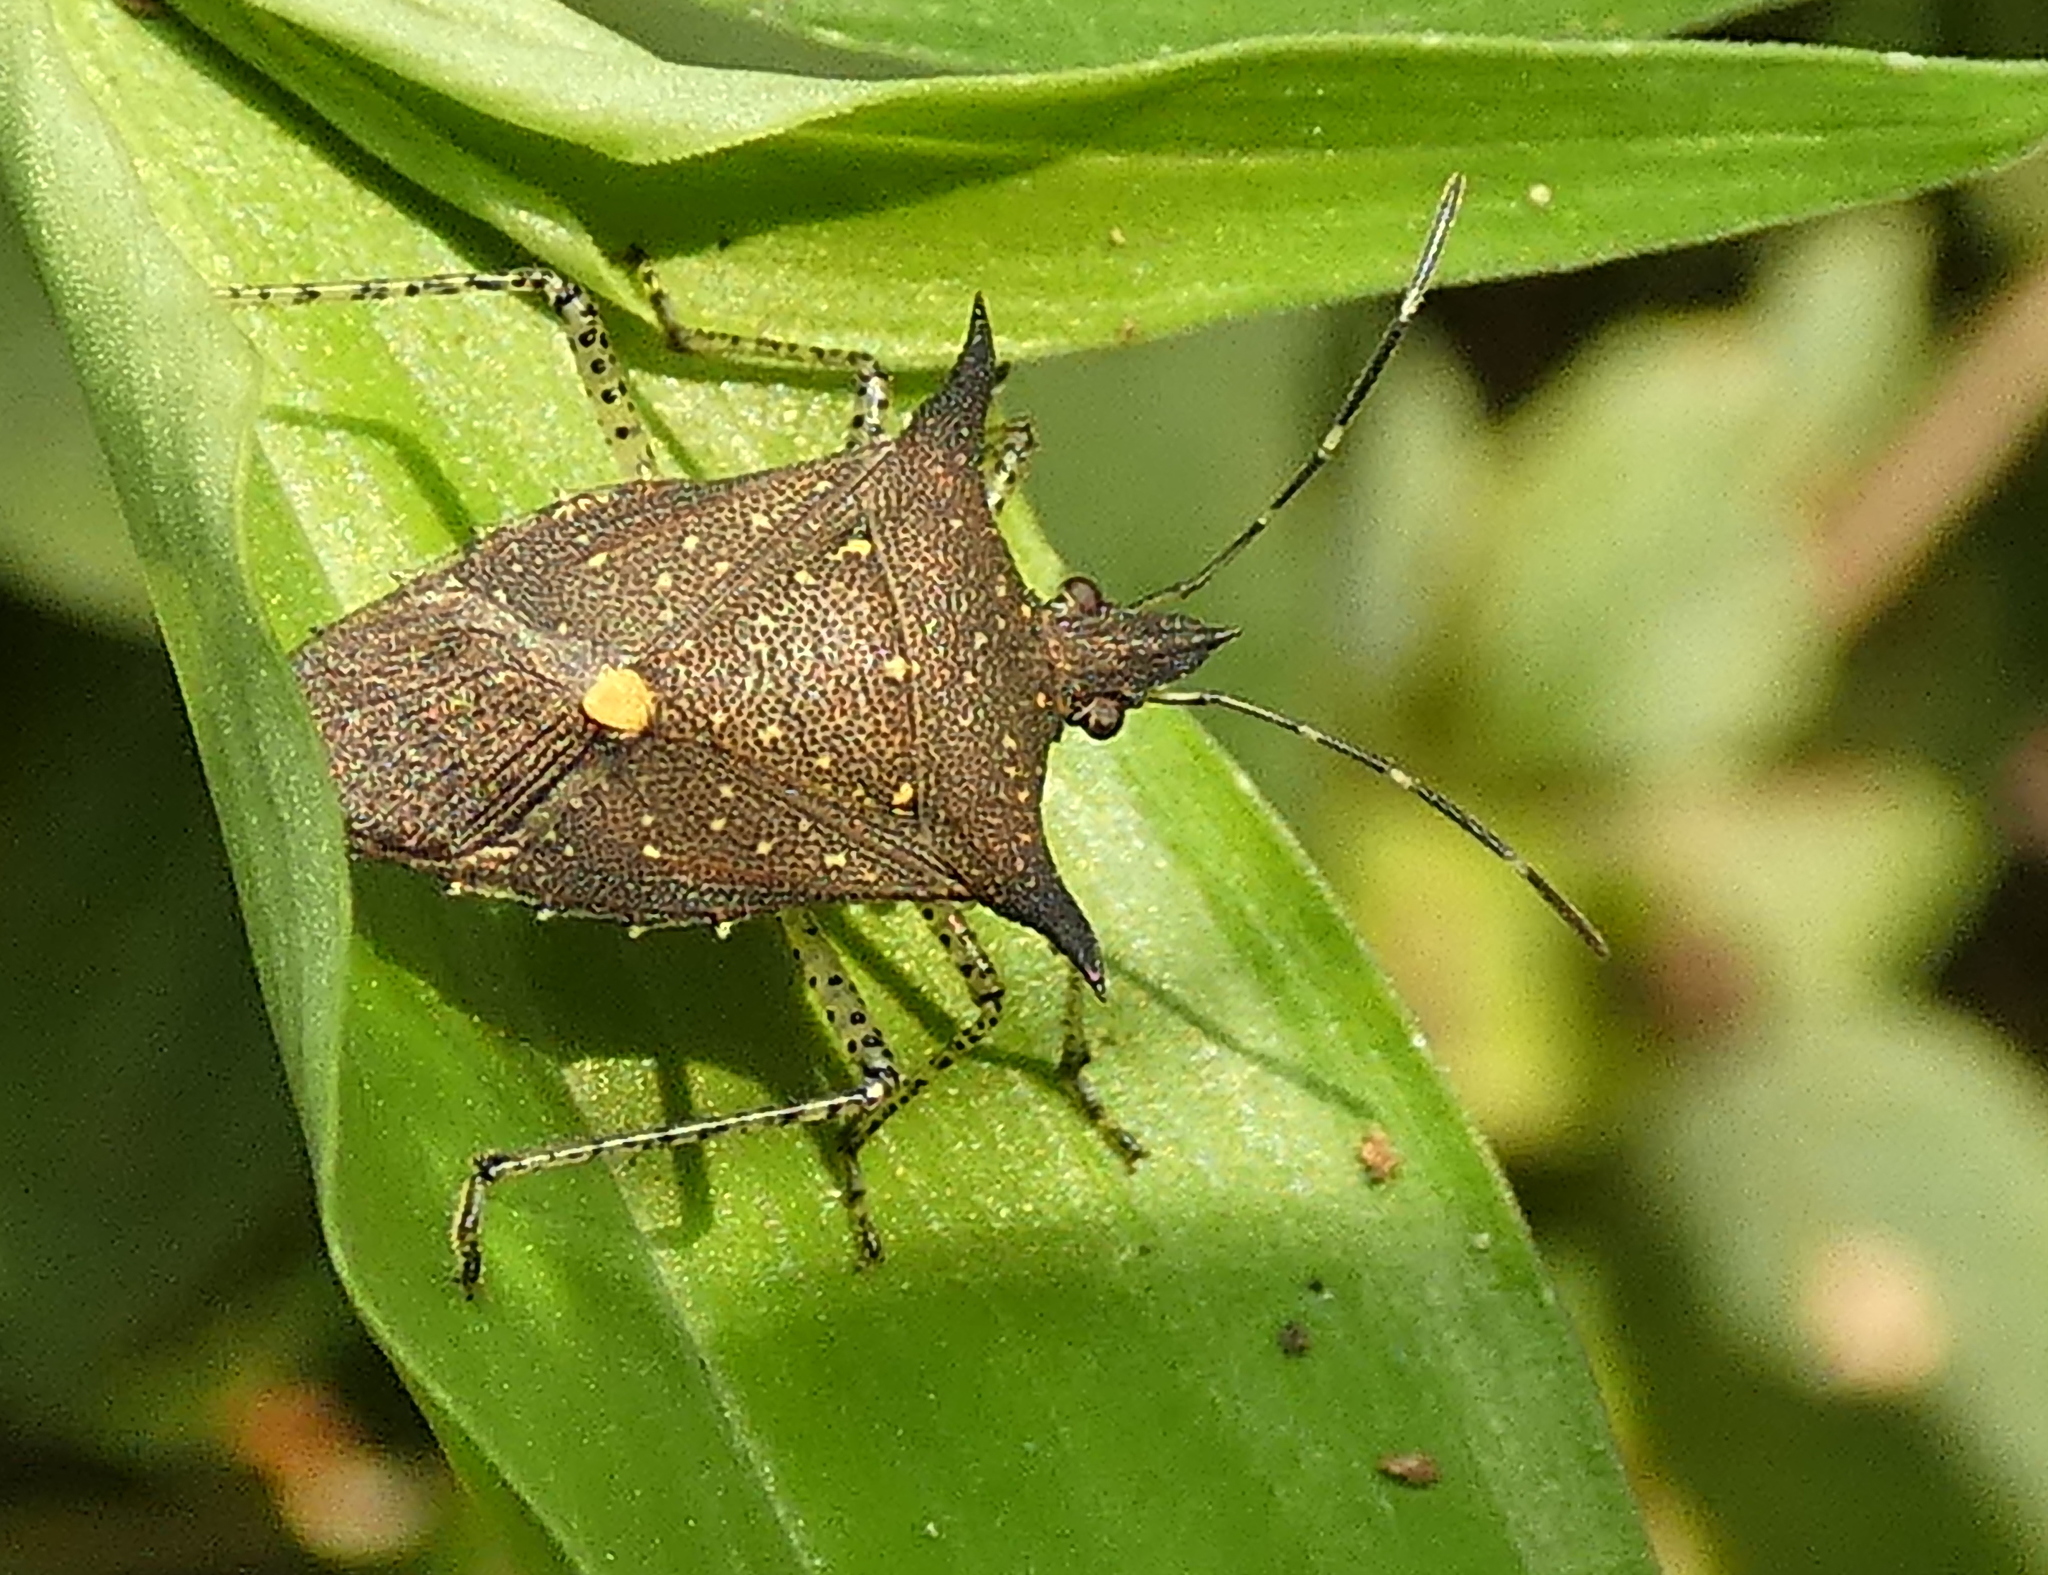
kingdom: Animalia
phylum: Arthropoda
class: Insecta
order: Hemiptera
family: Pentatomidae
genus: Proxys
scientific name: Proxys albopunctulatus
